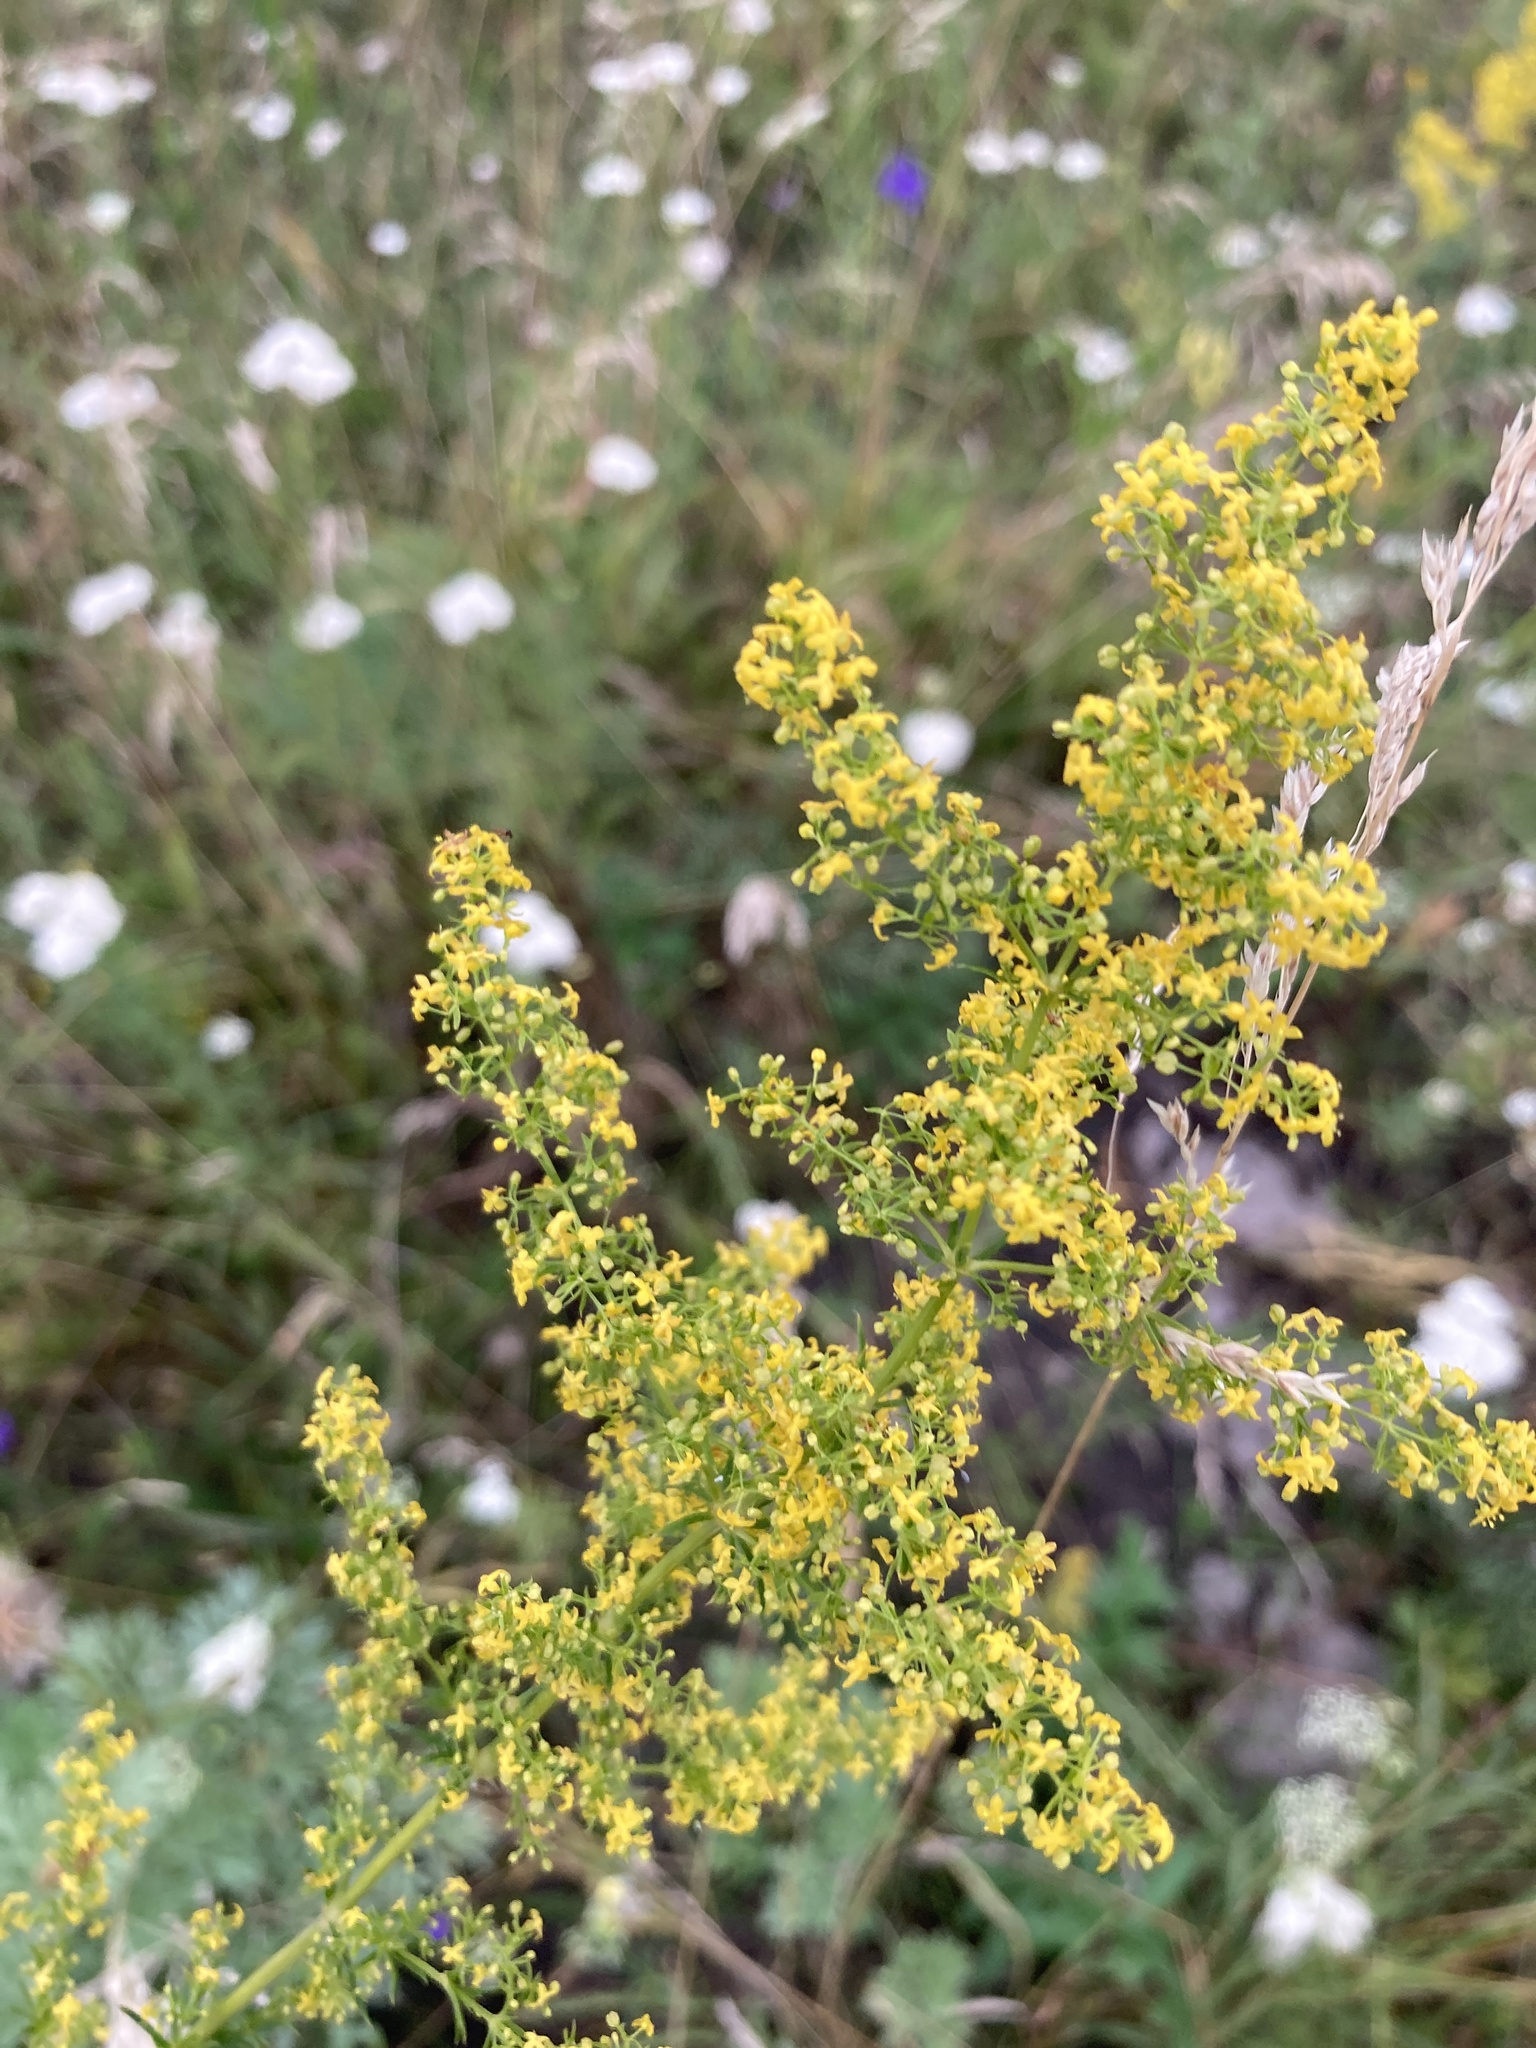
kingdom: Plantae
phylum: Tracheophyta
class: Magnoliopsida
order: Gentianales
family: Rubiaceae
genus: Galium
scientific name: Galium verum
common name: Lady's bedstraw
